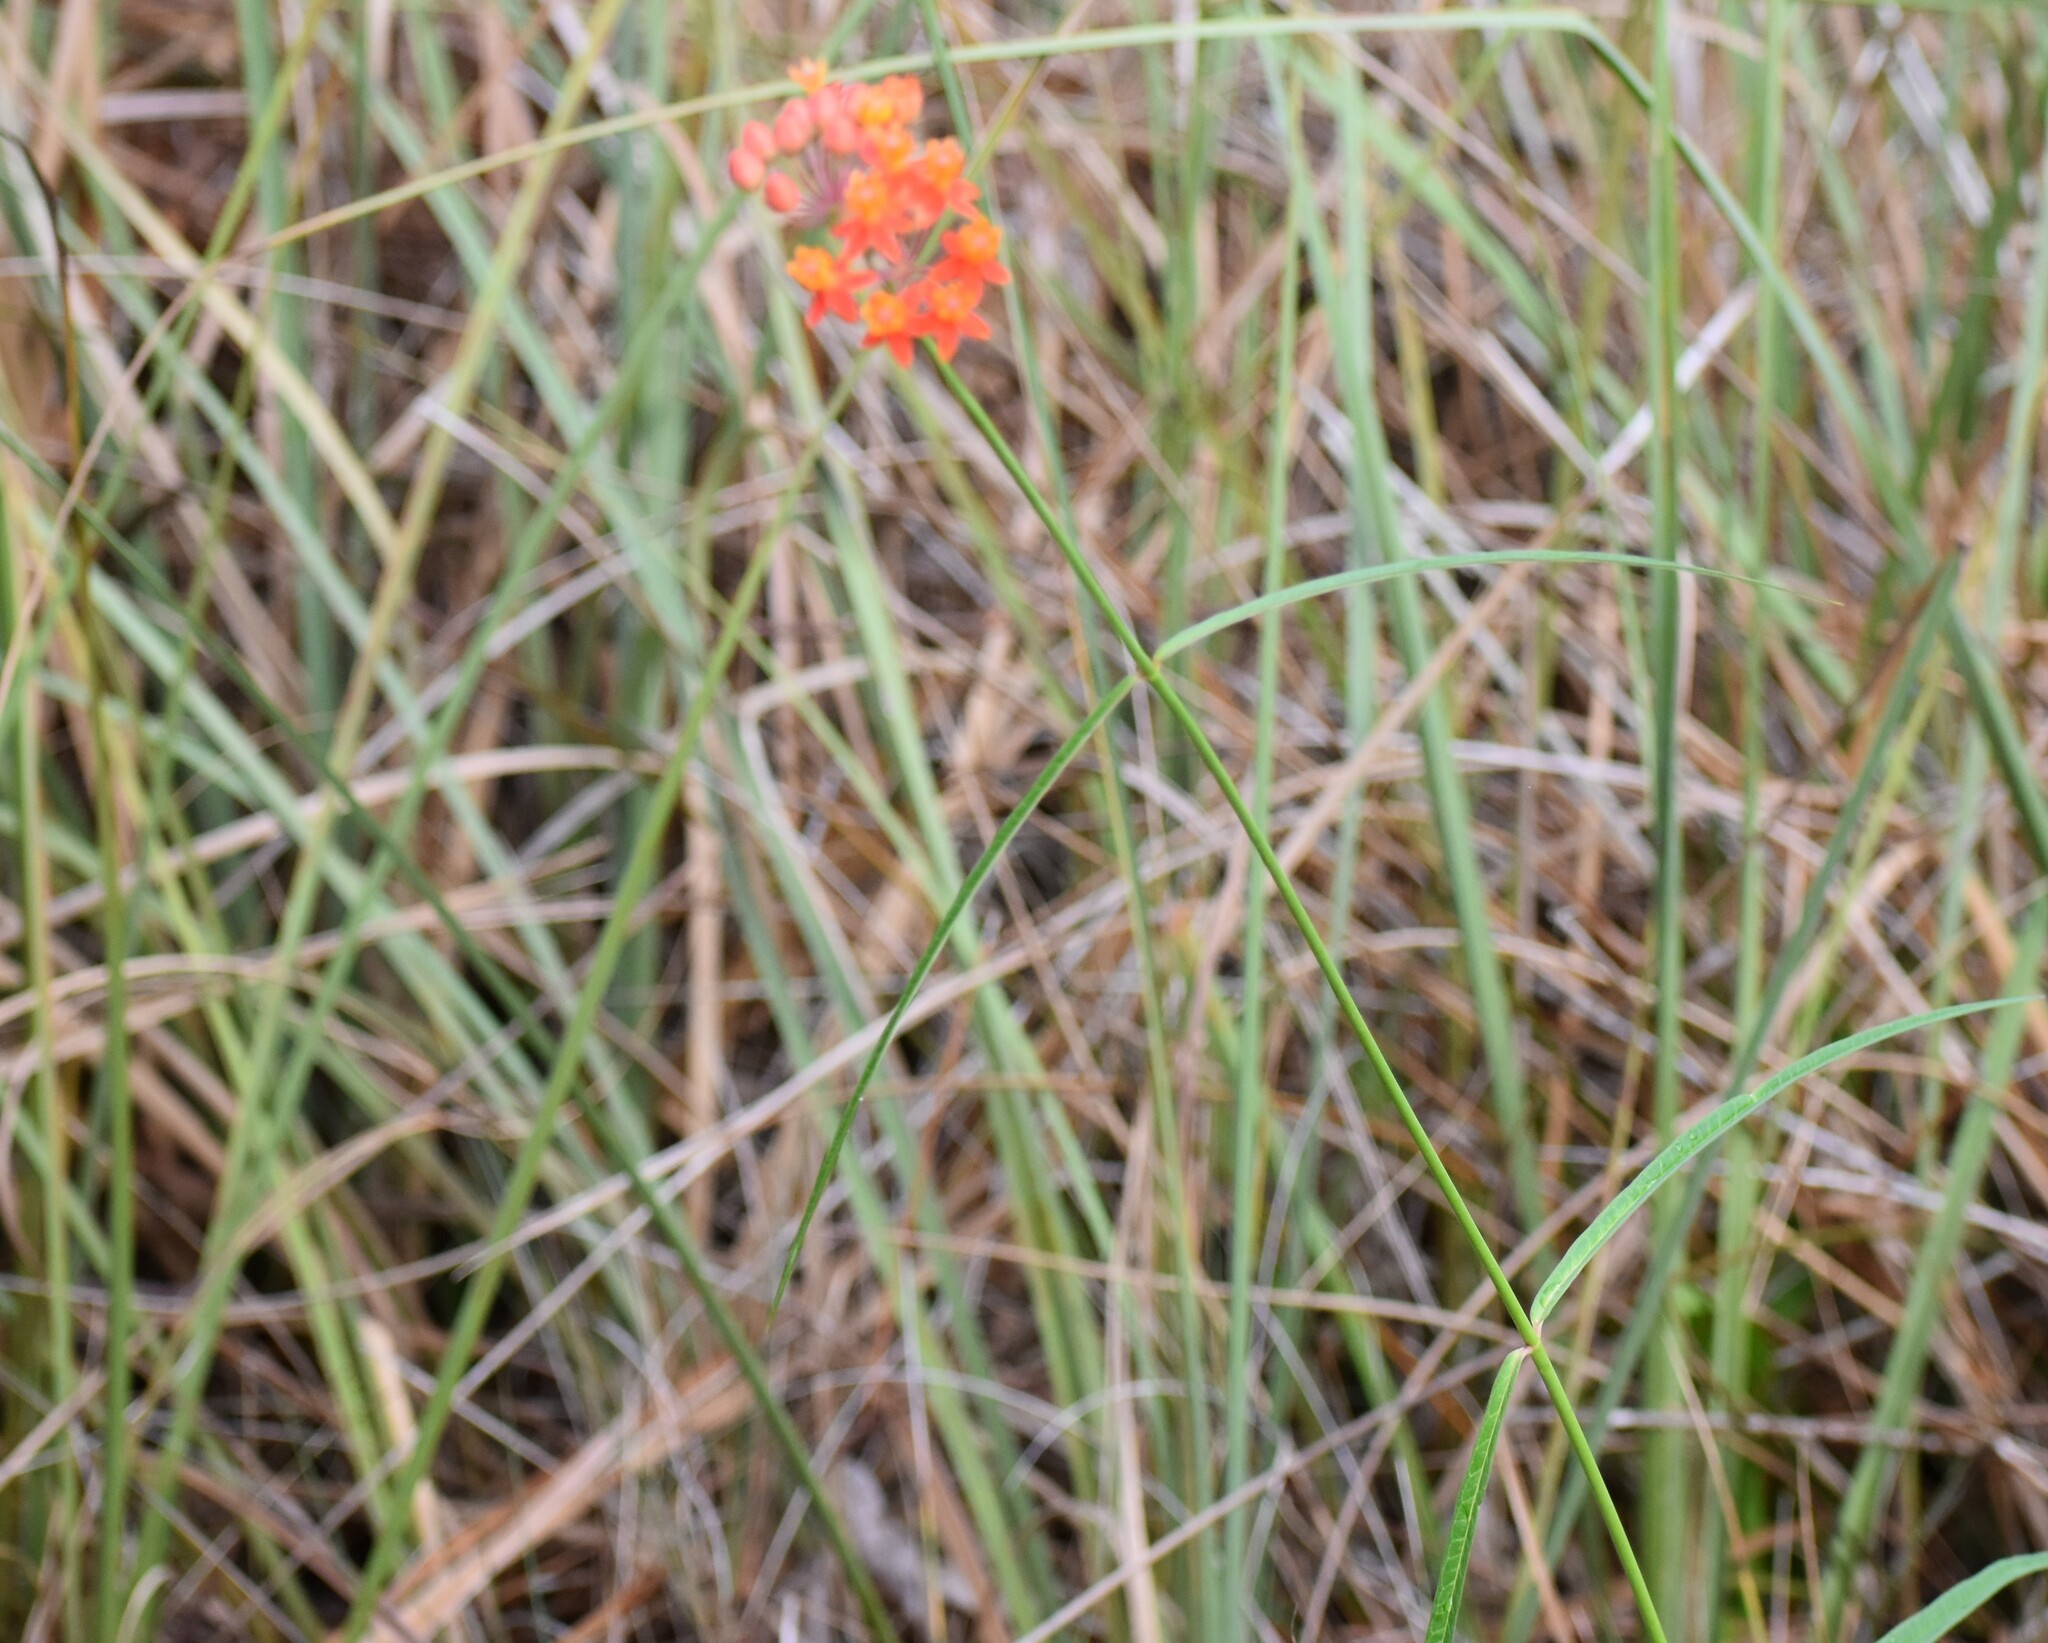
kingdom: Plantae
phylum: Tracheophyta
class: Magnoliopsida
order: Gentianales
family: Apocynaceae
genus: Asclepias
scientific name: Asclepias lanceolata
